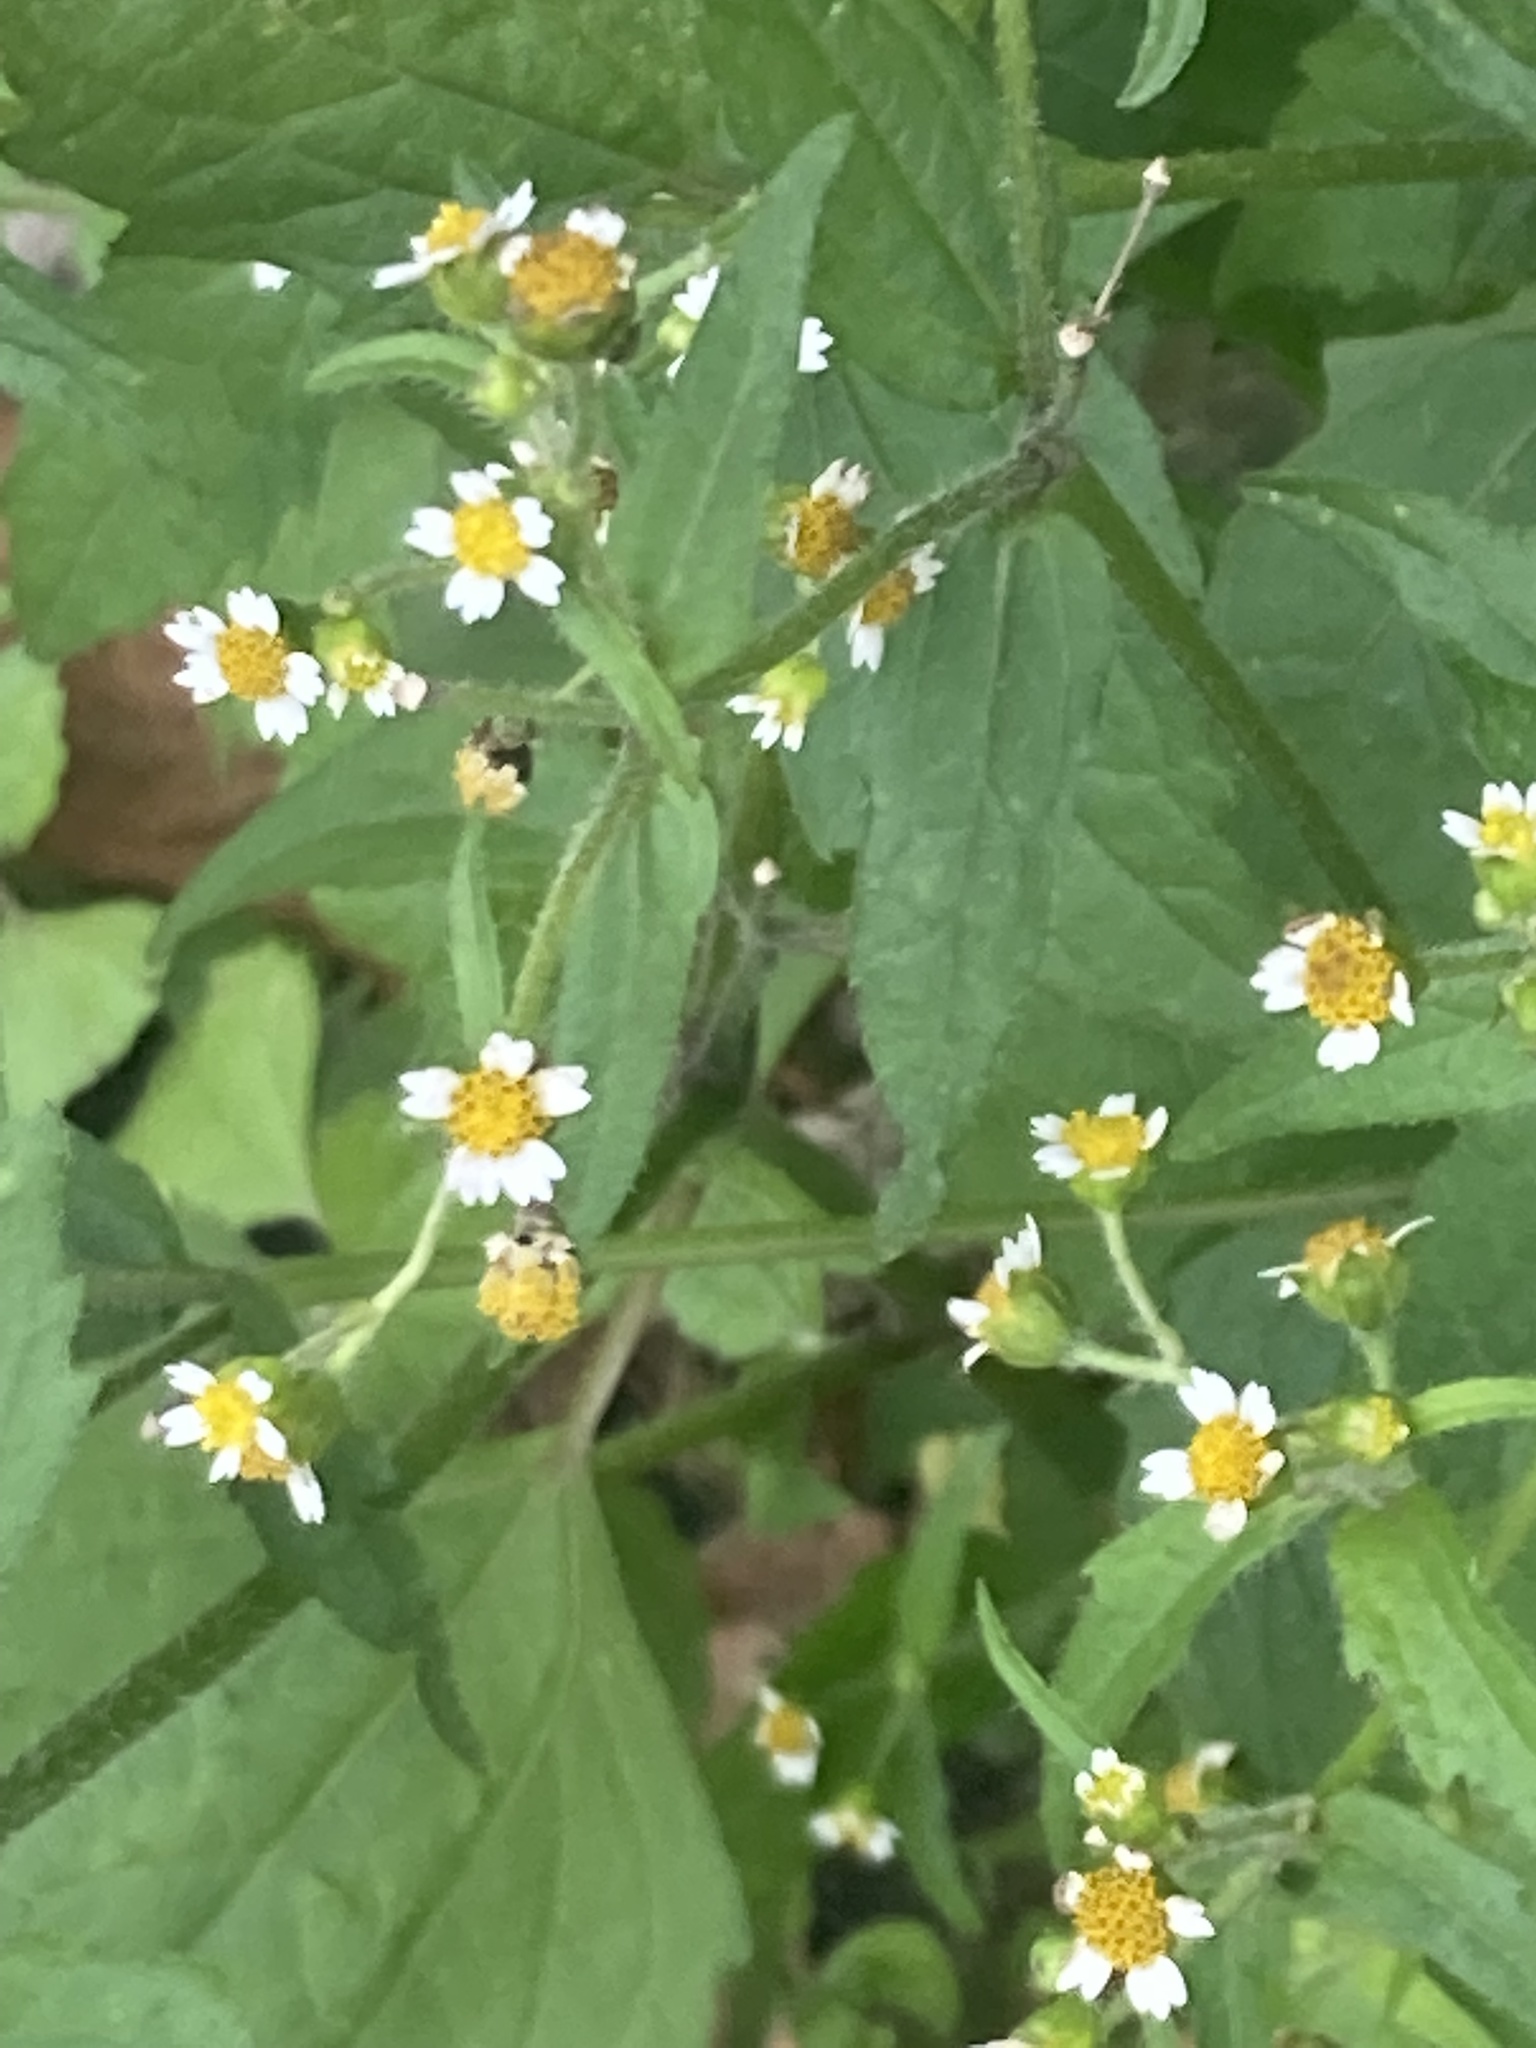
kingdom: Plantae
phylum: Tracheophyta
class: Magnoliopsida
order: Asterales
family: Asteraceae
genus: Galinsoga
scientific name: Galinsoga quadriradiata
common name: Shaggy soldier
